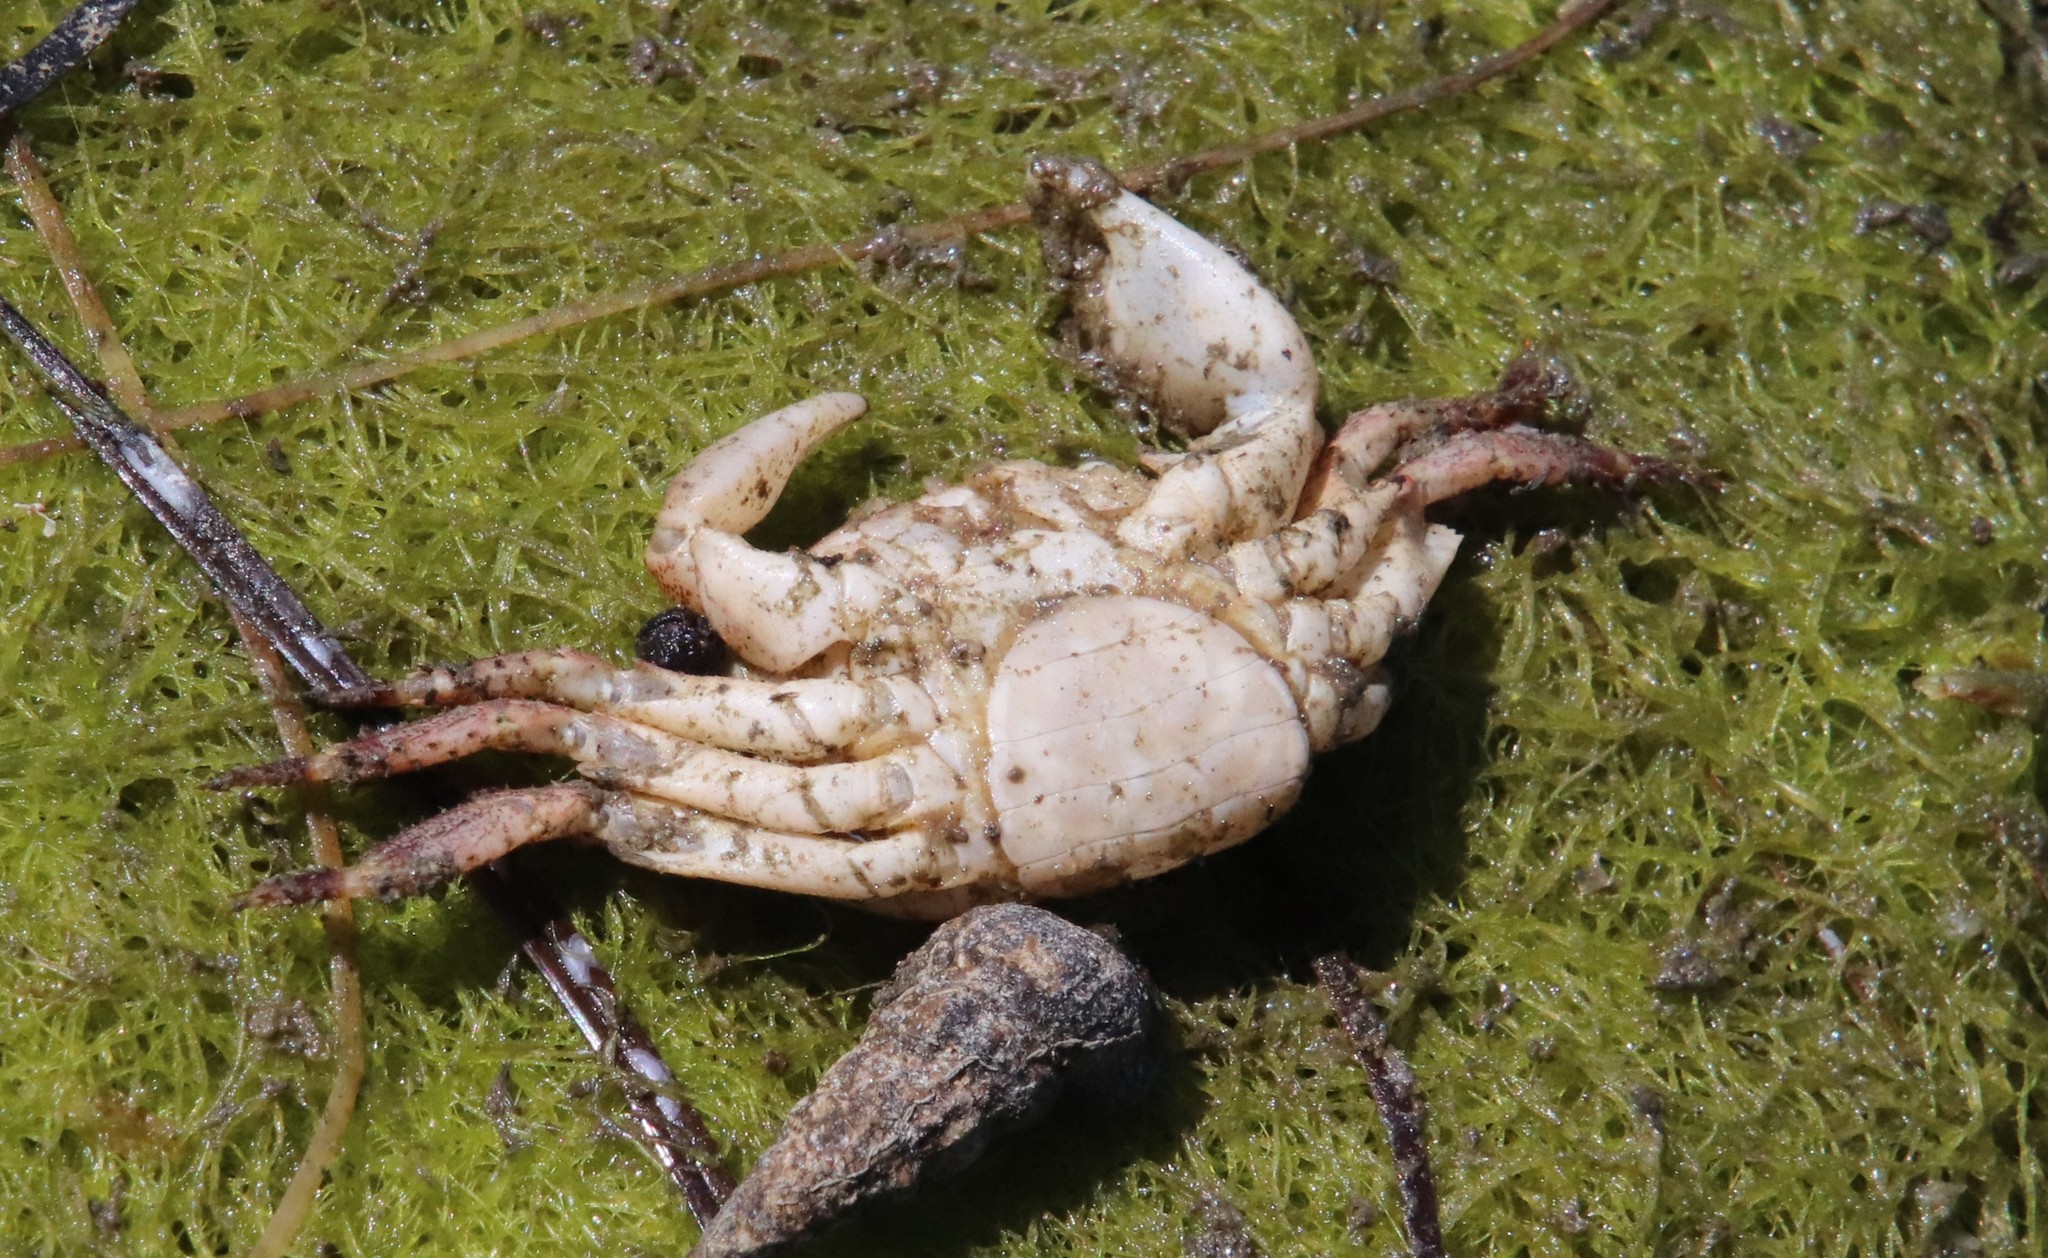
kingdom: Animalia
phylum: Arthropoda
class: Malacostraca
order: Decapoda
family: Grapsidae
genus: Pachygrapsus
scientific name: Pachygrapsus crassipes
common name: Striped shore crab
